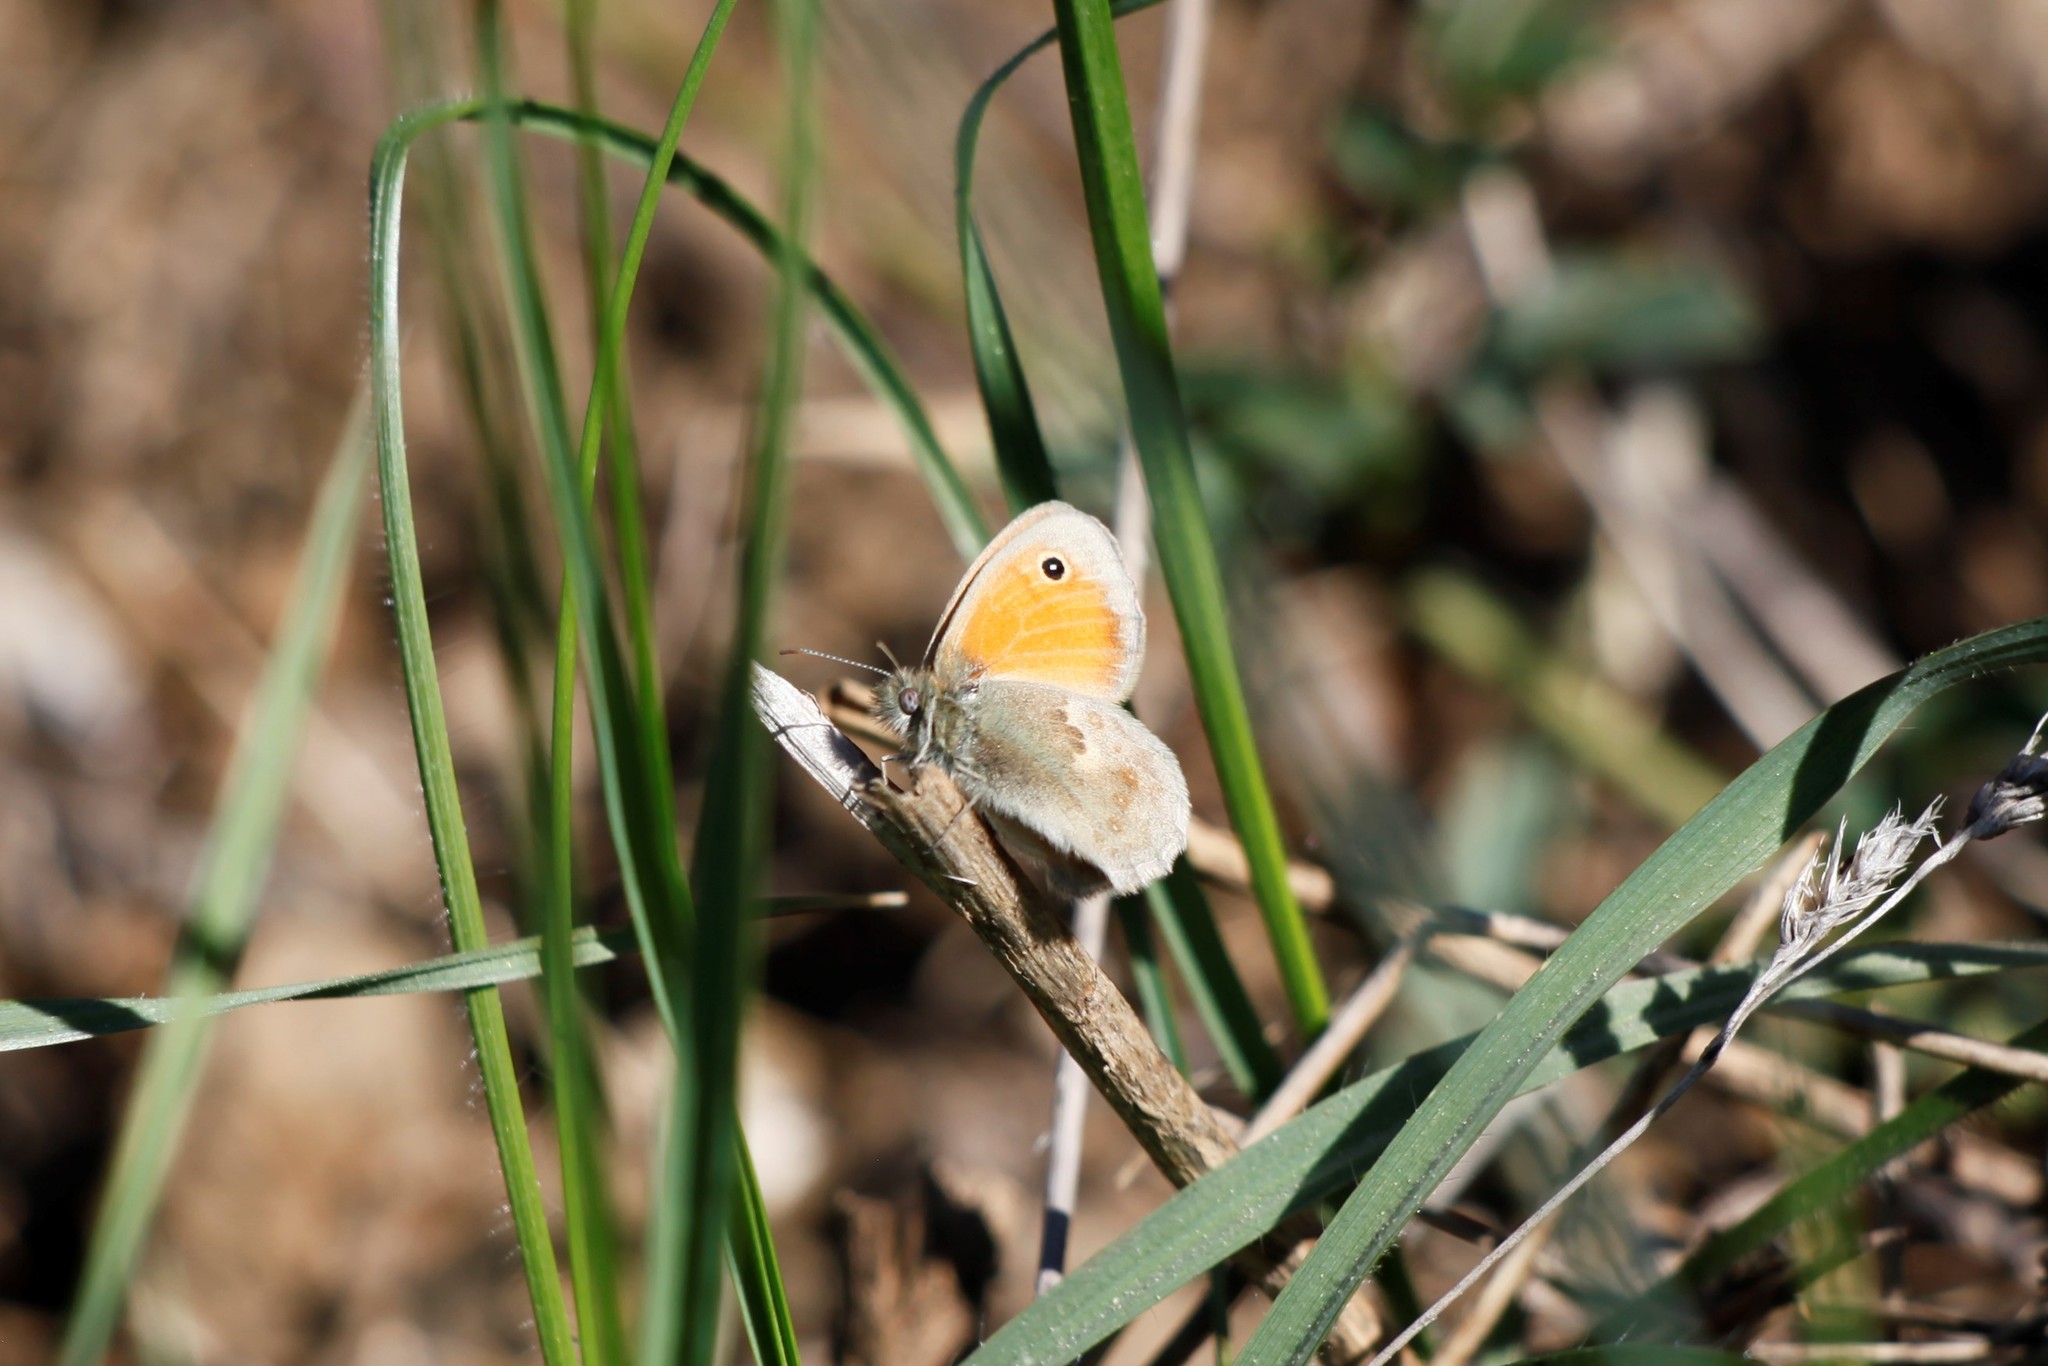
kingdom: Animalia
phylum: Arthropoda
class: Insecta
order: Lepidoptera
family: Nymphalidae
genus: Coenonympha
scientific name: Coenonympha pamphilus
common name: Small heath
